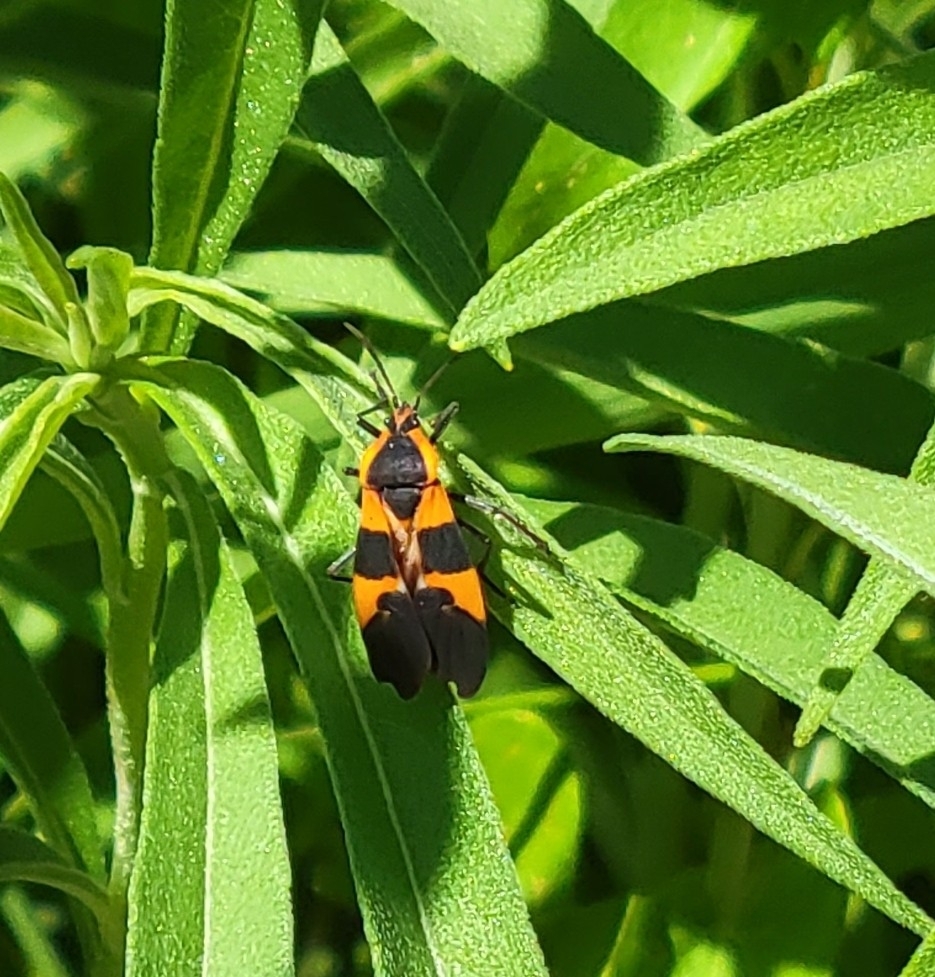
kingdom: Animalia
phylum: Arthropoda
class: Insecta
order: Hemiptera
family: Lygaeidae
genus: Oncopeltus
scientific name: Oncopeltus fasciatus
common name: Large milkweed bug
